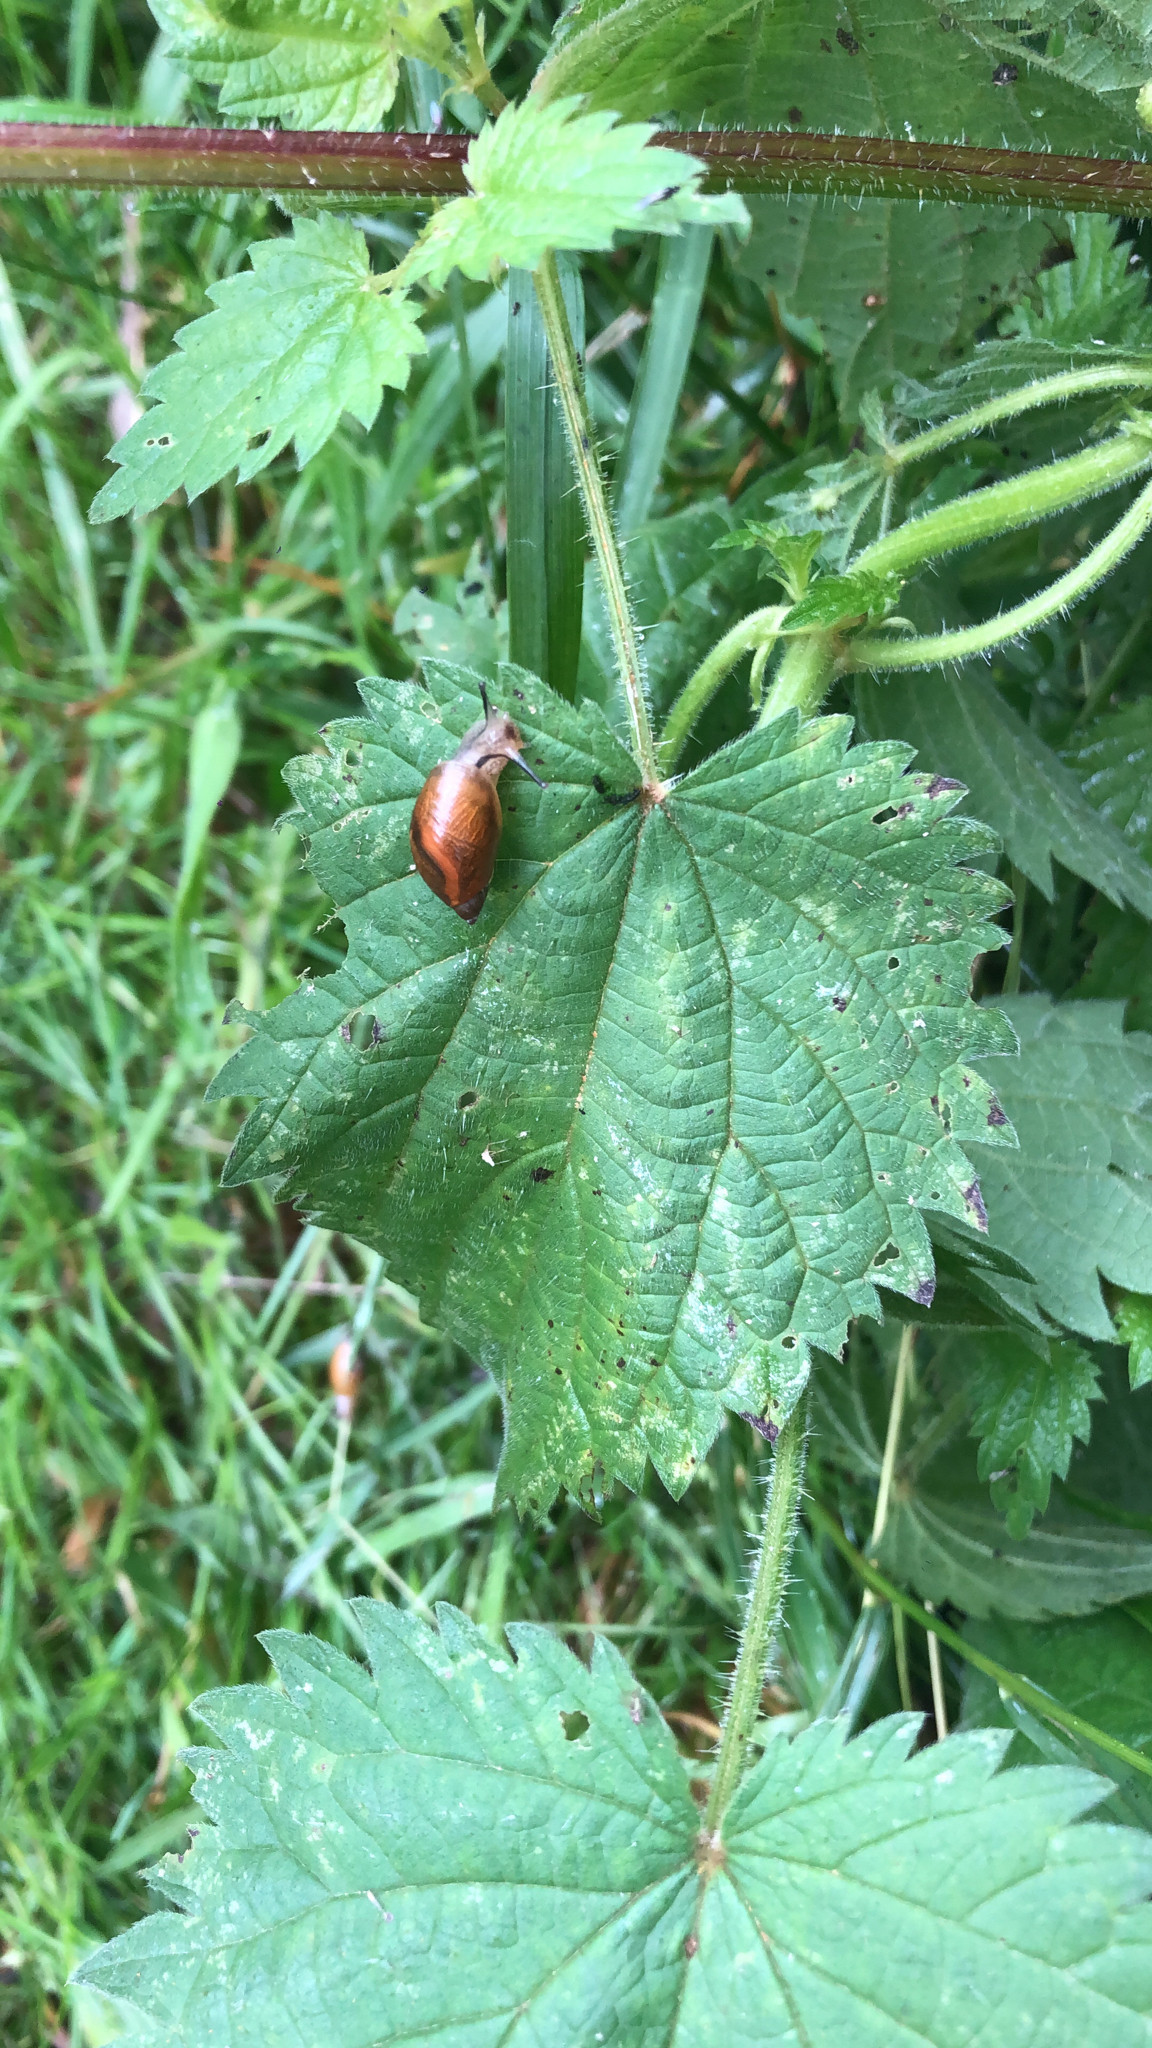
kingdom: Animalia
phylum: Mollusca
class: Gastropoda
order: Stylommatophora
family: Succineidae
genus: Succinea
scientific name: Succinea putris
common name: European ambersnail
